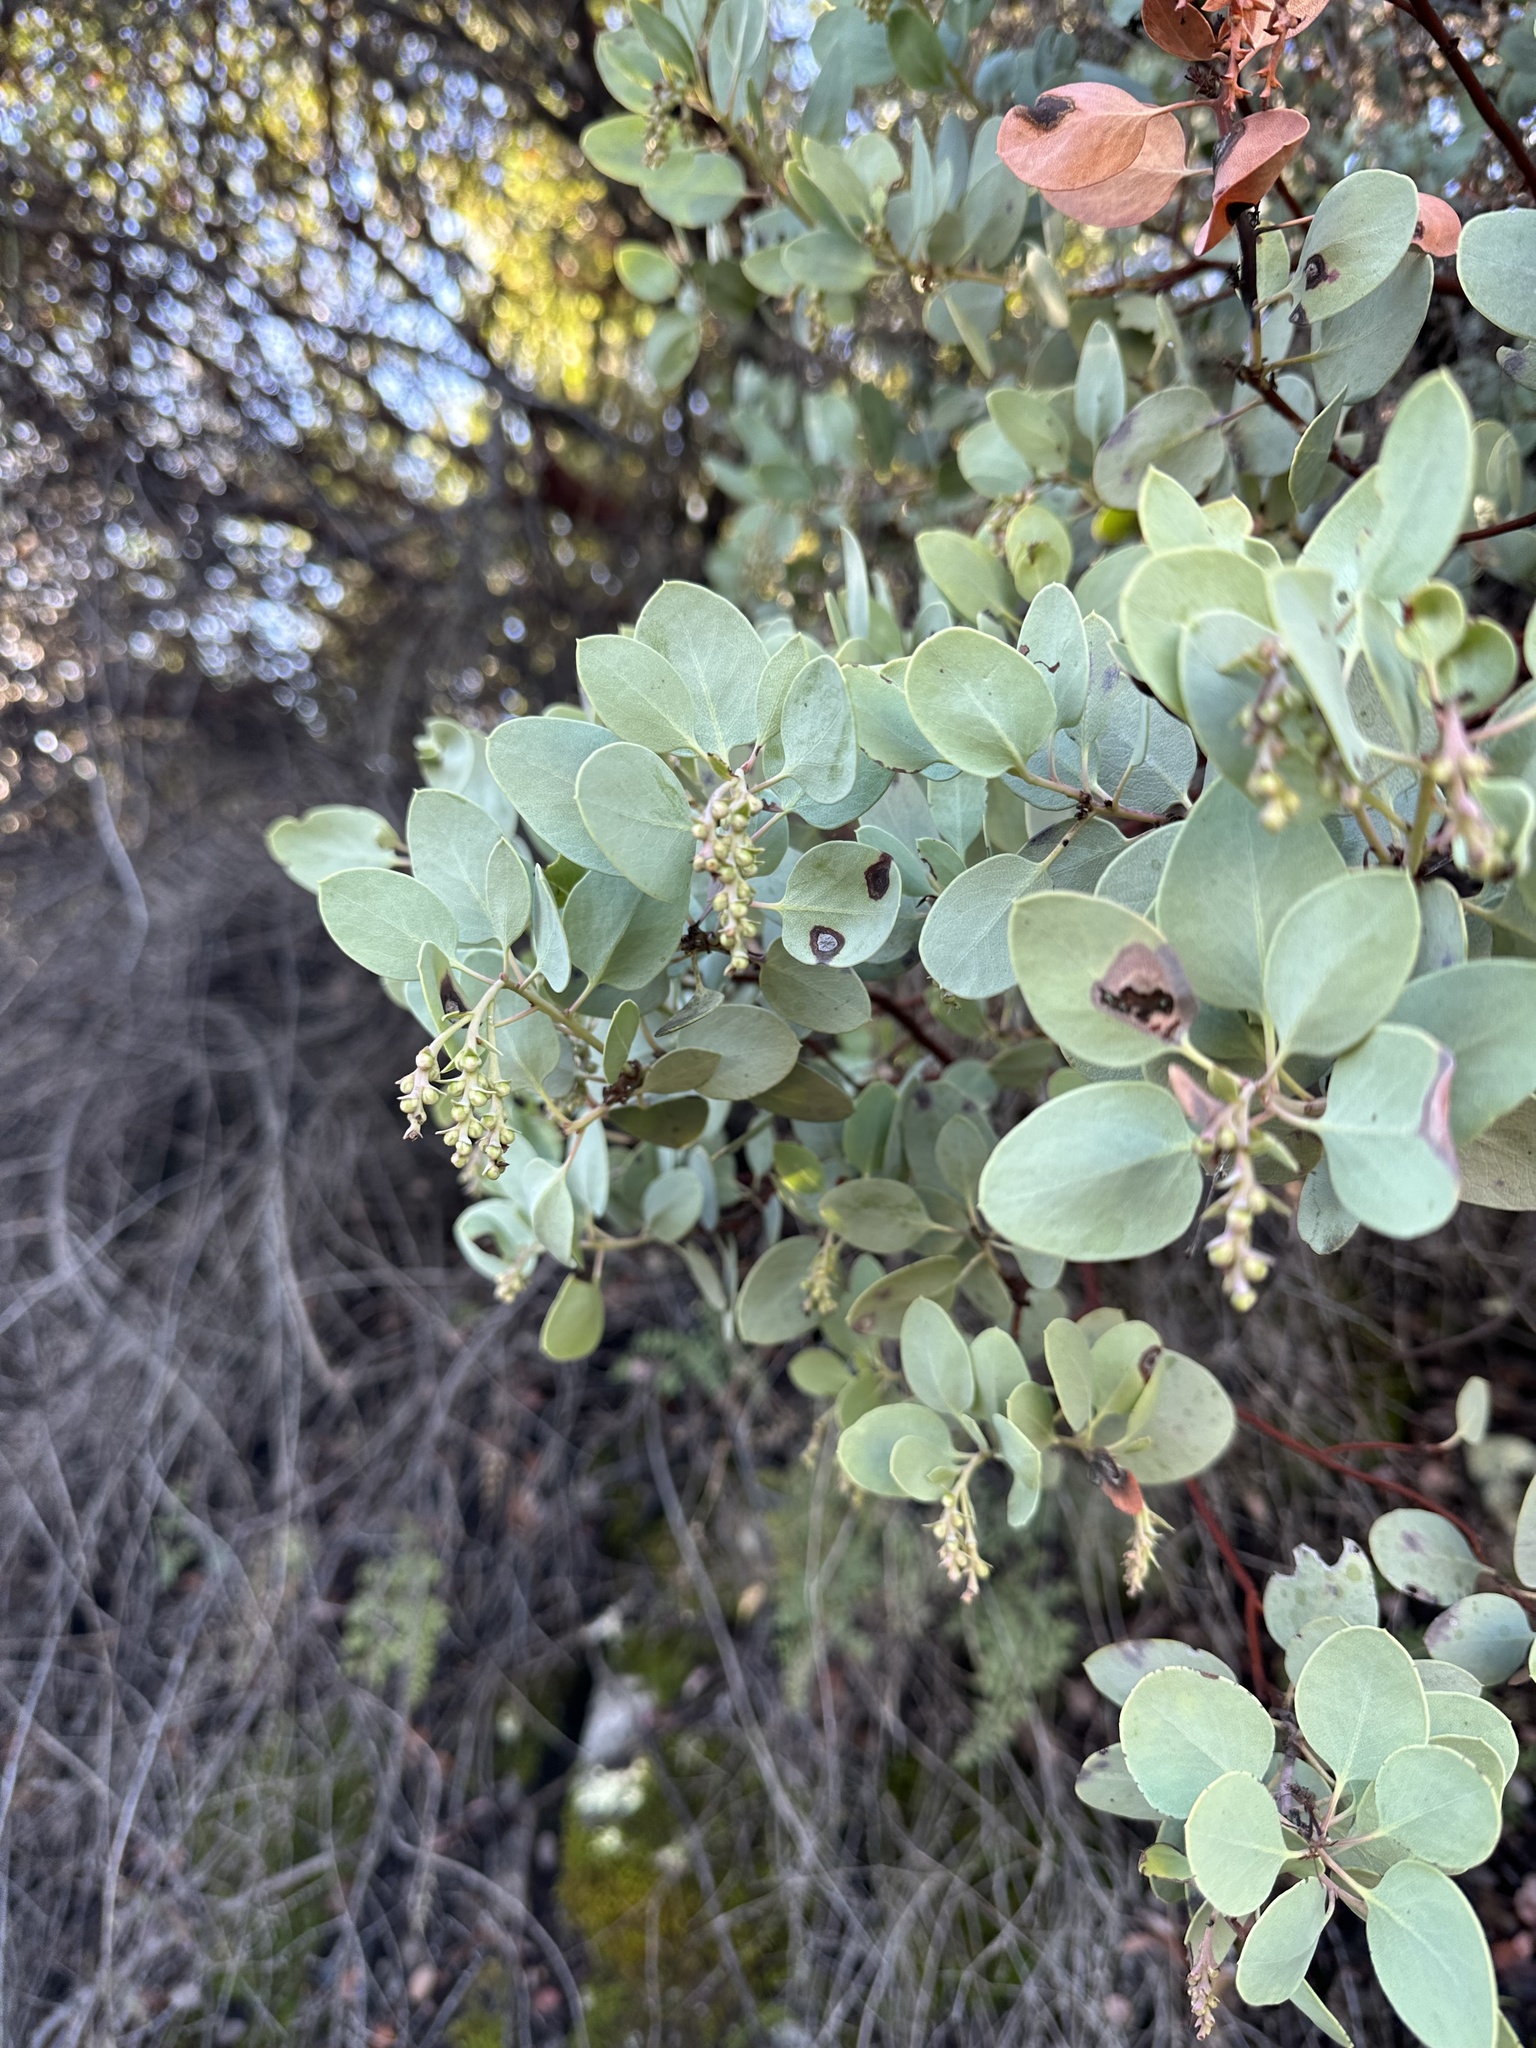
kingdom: Plantae
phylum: Tracheophyta
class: Magnoliopsida
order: Ericales
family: Ericaceae
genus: Arctostaphylos
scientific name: Arctostaphylos glauca
